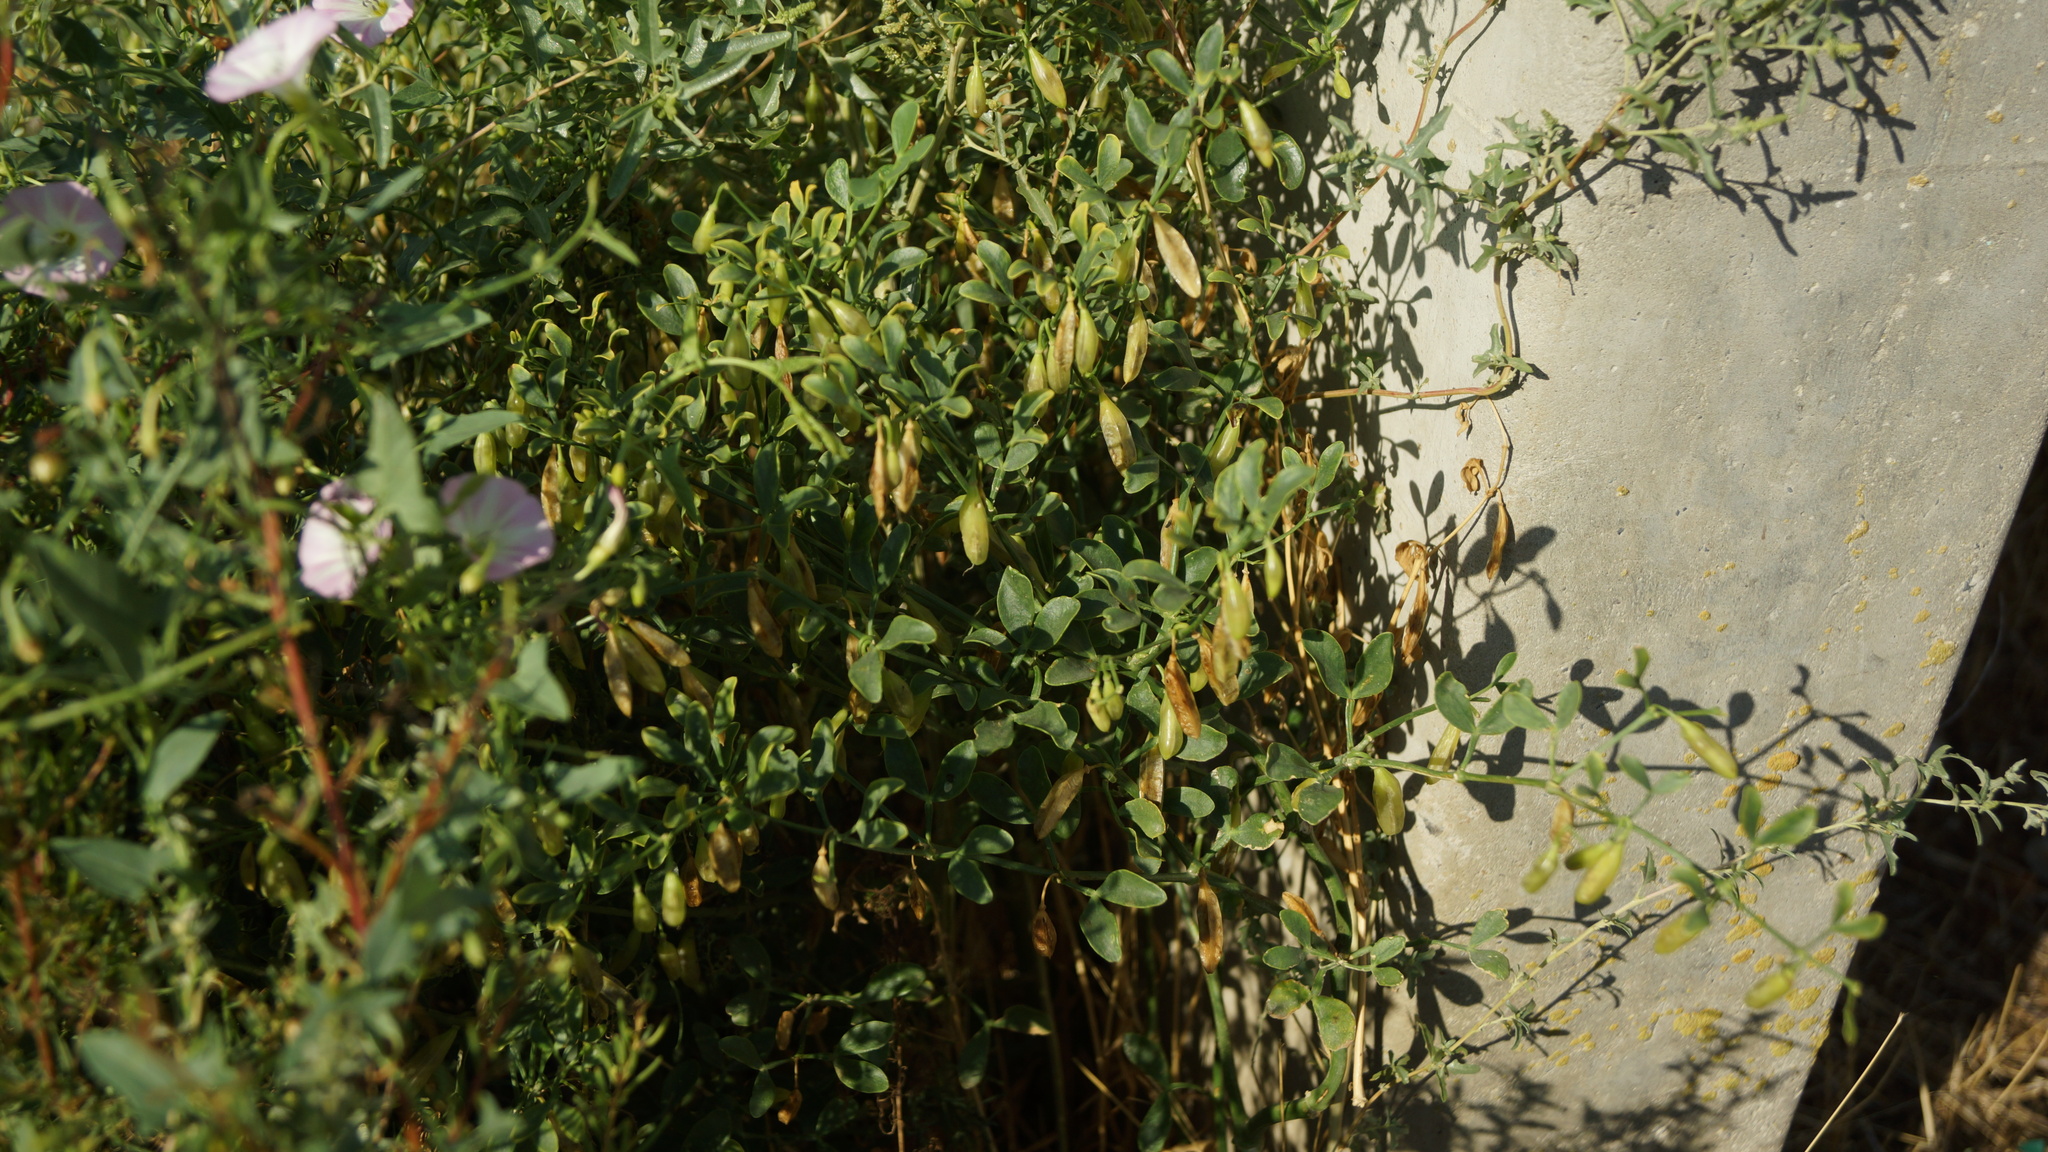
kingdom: Plantae
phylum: Tracheophyta
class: Magnoliopsida
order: Zygophyllales
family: Zygophyllaceae
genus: Zygophyllum
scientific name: Zygophyllum fabago
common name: Syrian beancaper
